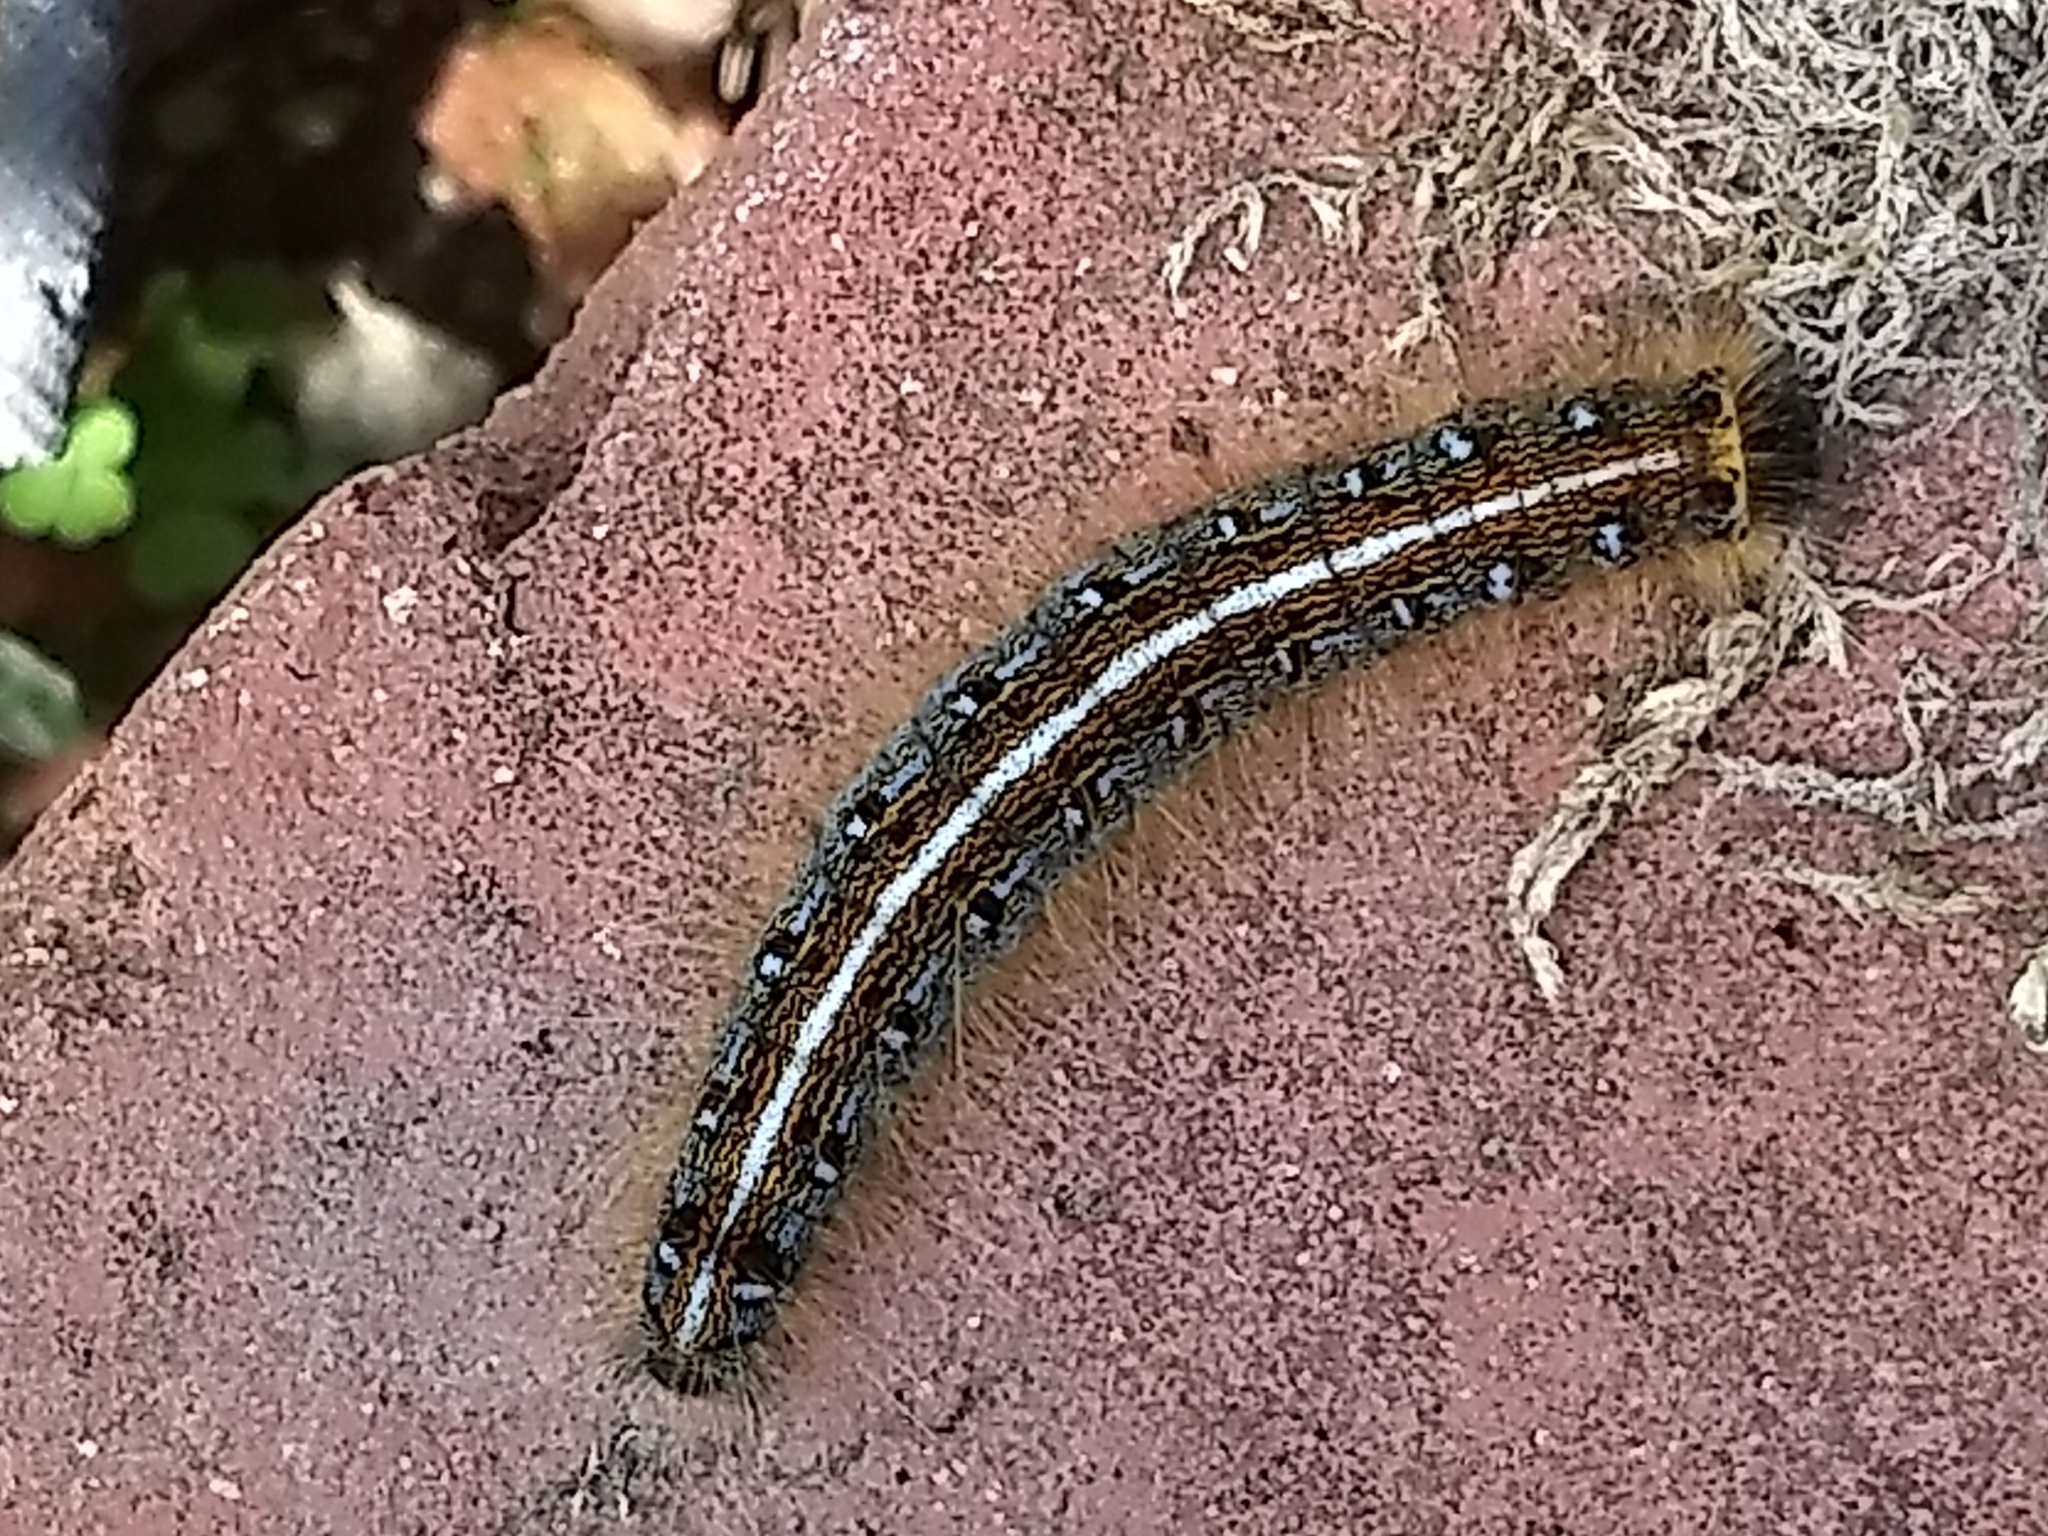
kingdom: Animalia
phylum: Arthropoda
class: Insecta
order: Lepidoptera
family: Lasiocampidae
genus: Malacosoma
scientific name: Malacosoma americana
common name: Eastern tent caterpillar moth
